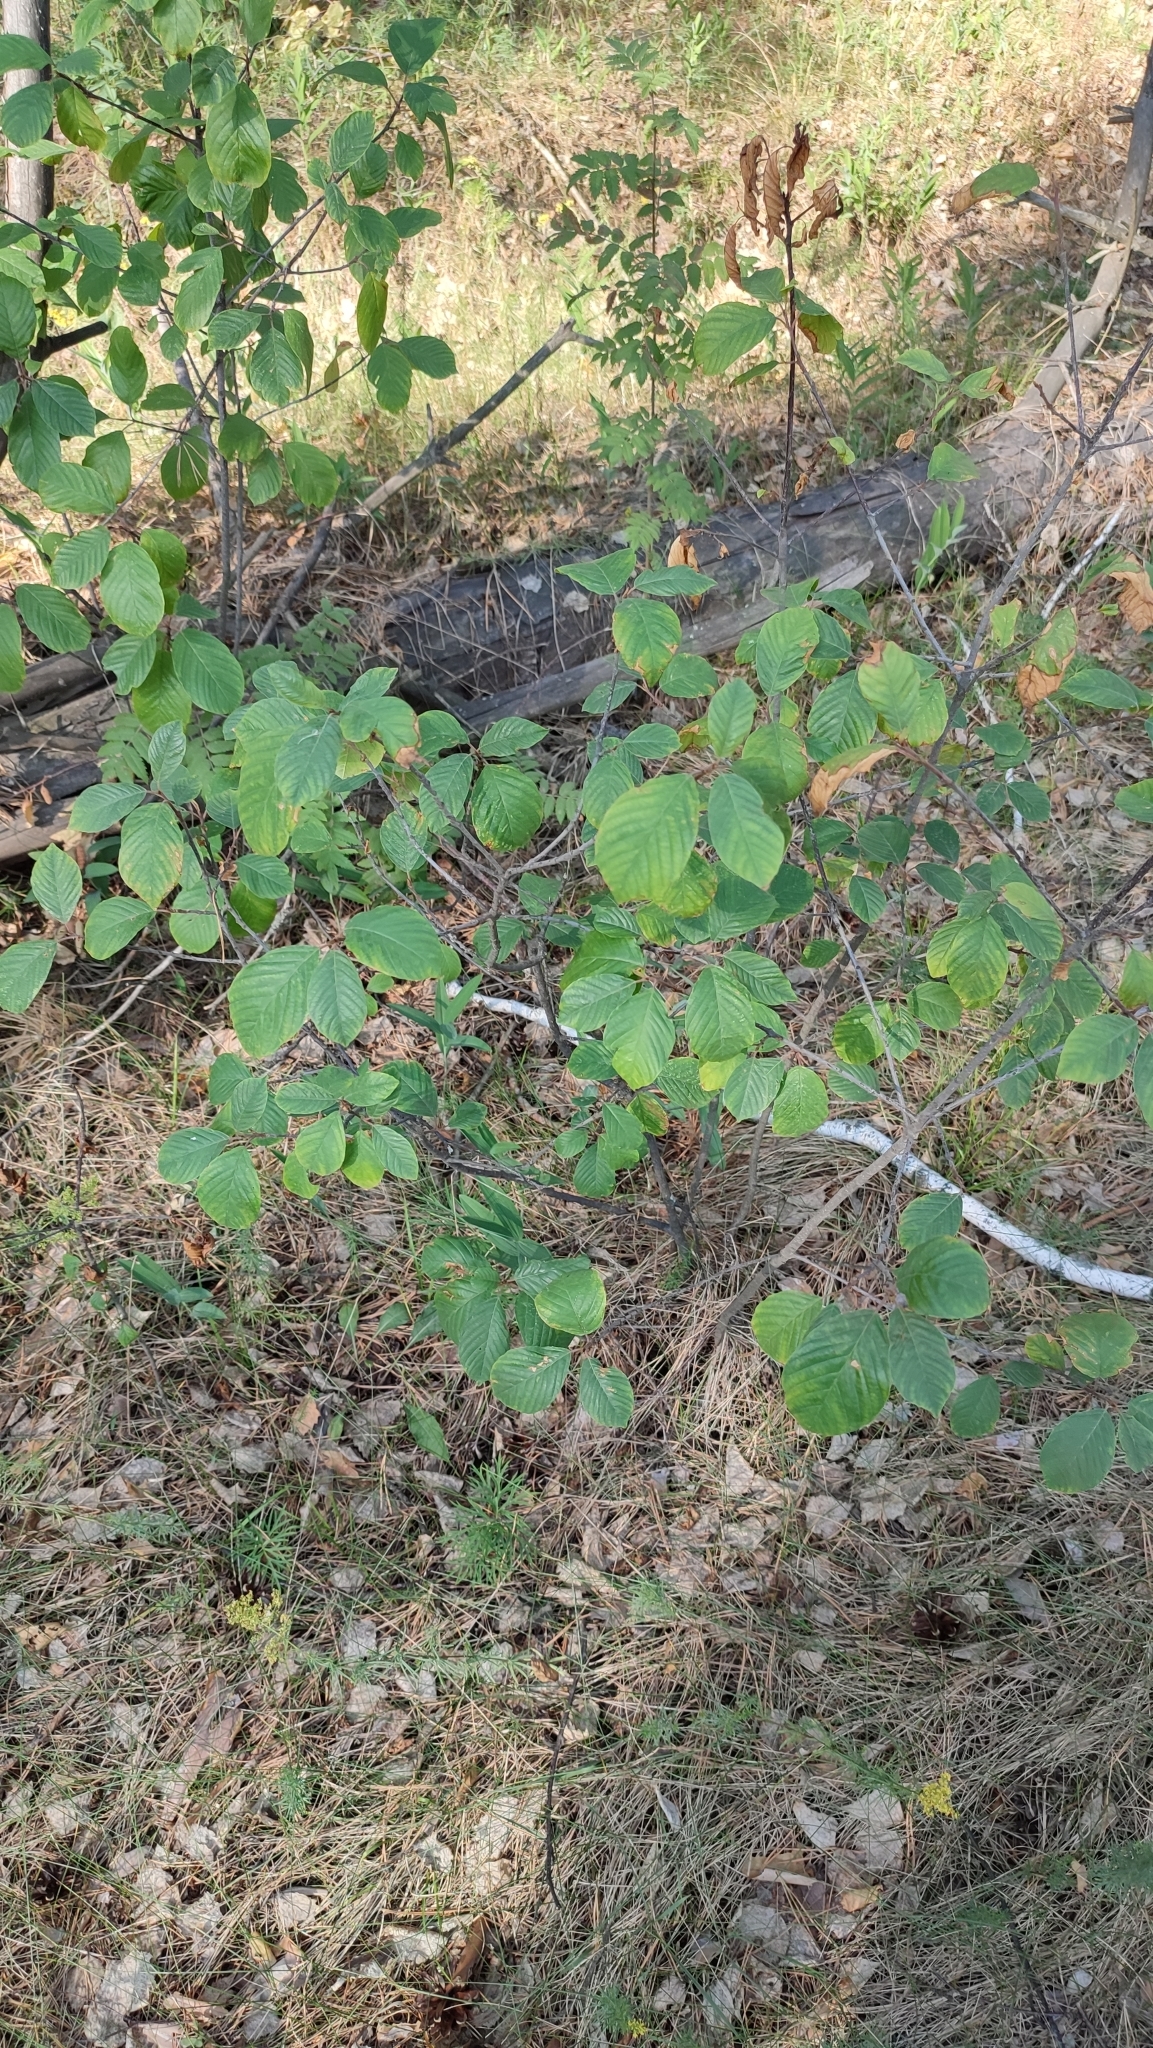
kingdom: Plantae
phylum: Tracheophyta
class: Magnoliopsida
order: Rosales
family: Rhamnaceae
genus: Frangula
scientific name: Frangula alnus
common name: Alder buckthorn
